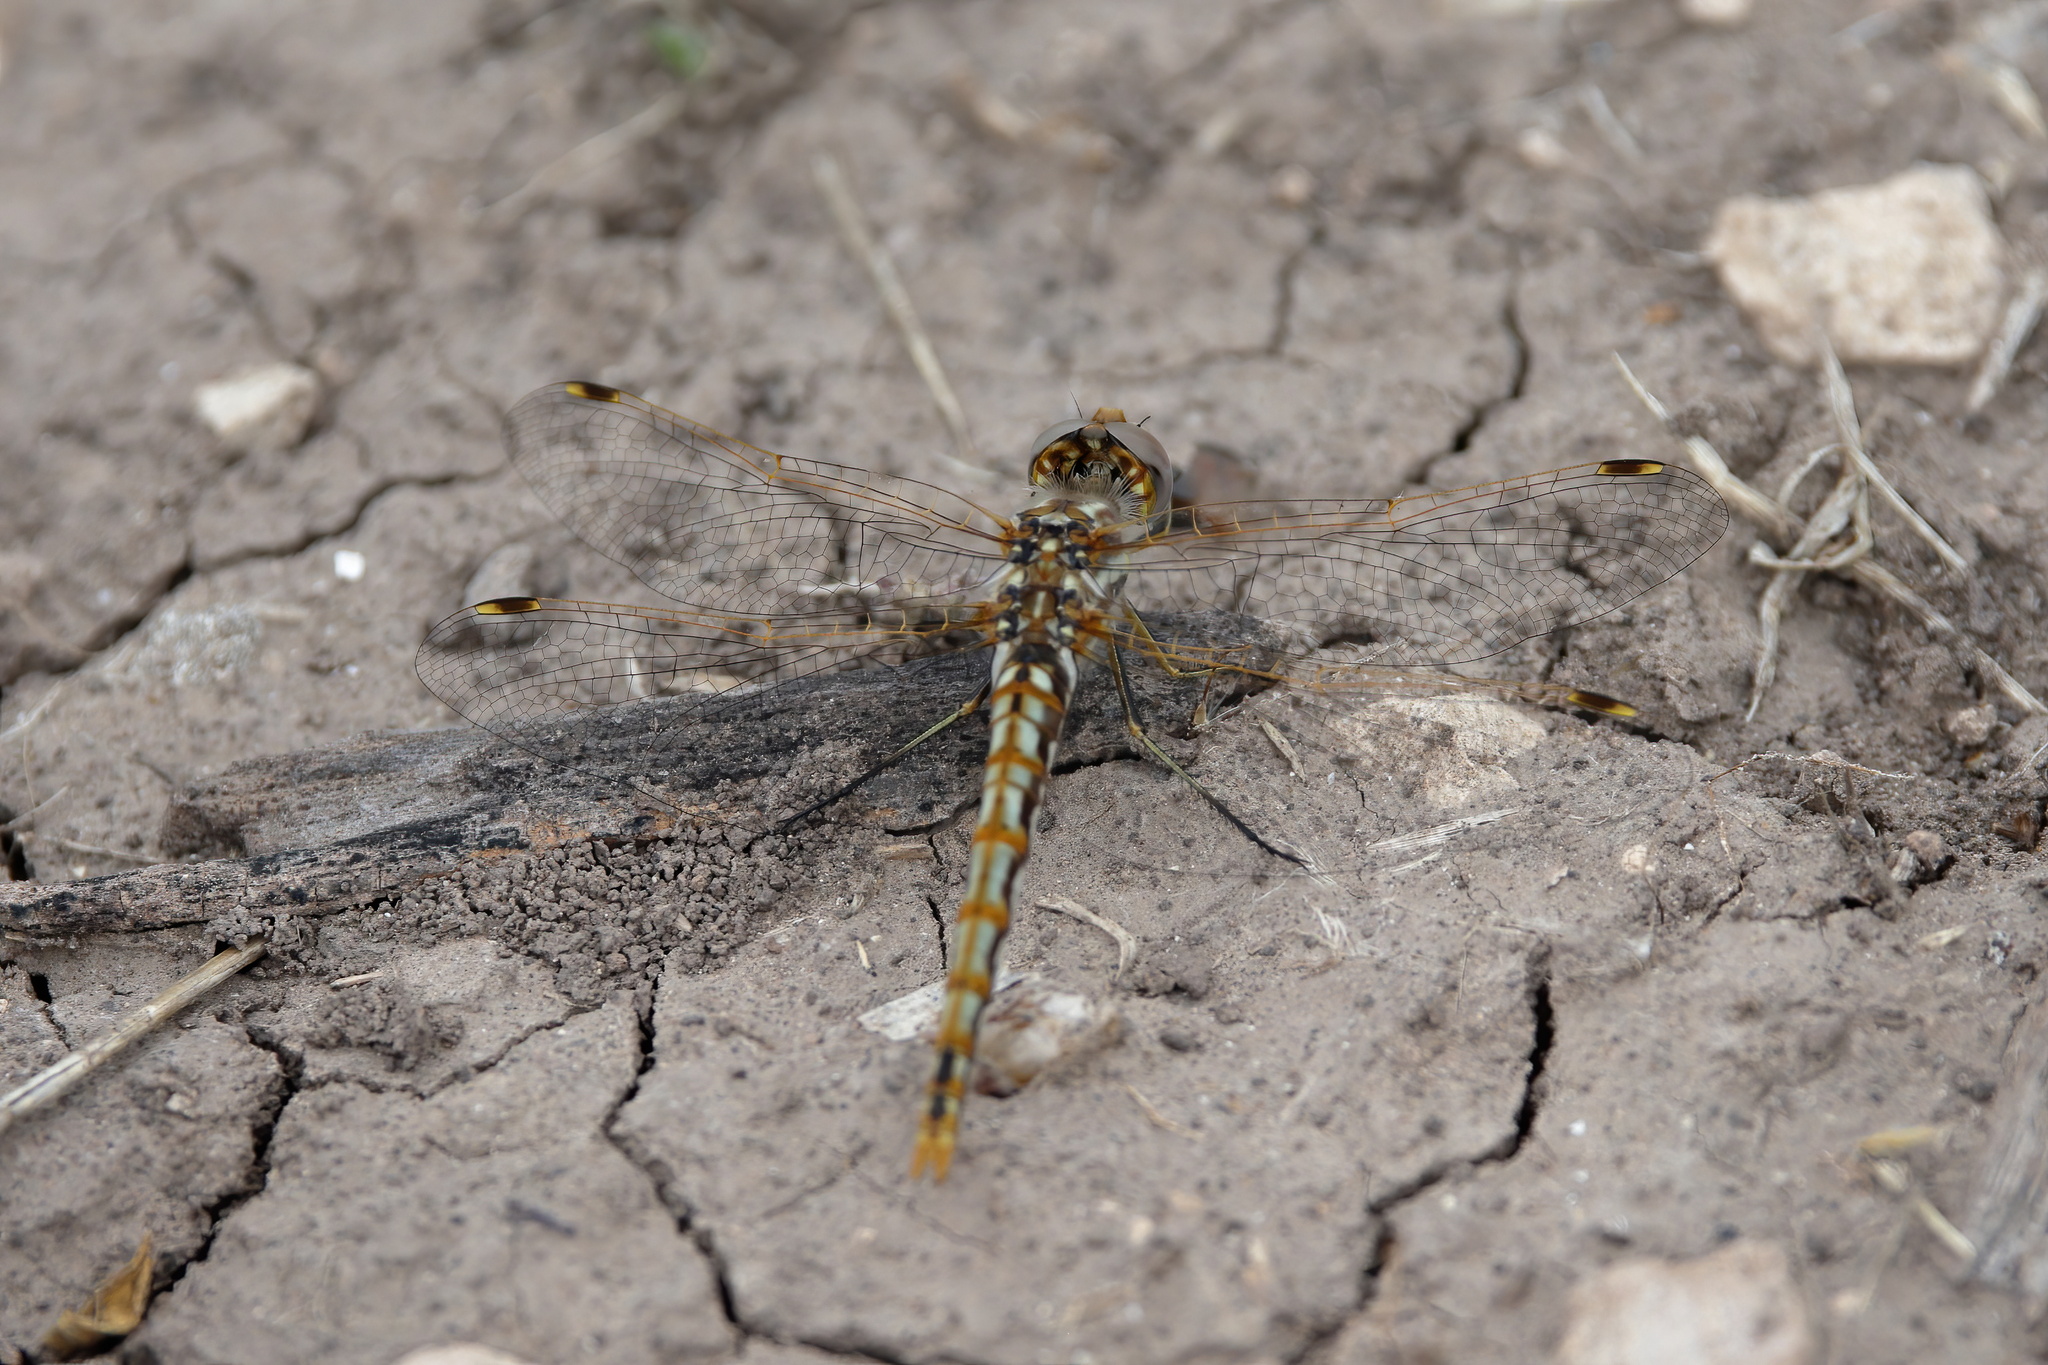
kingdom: Animalia
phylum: Arthropoda
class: Insecta
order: Odonata
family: Libellulidae
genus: Sympetrum
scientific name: Sympetrum corruptum
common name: Variegated meadowhawk
